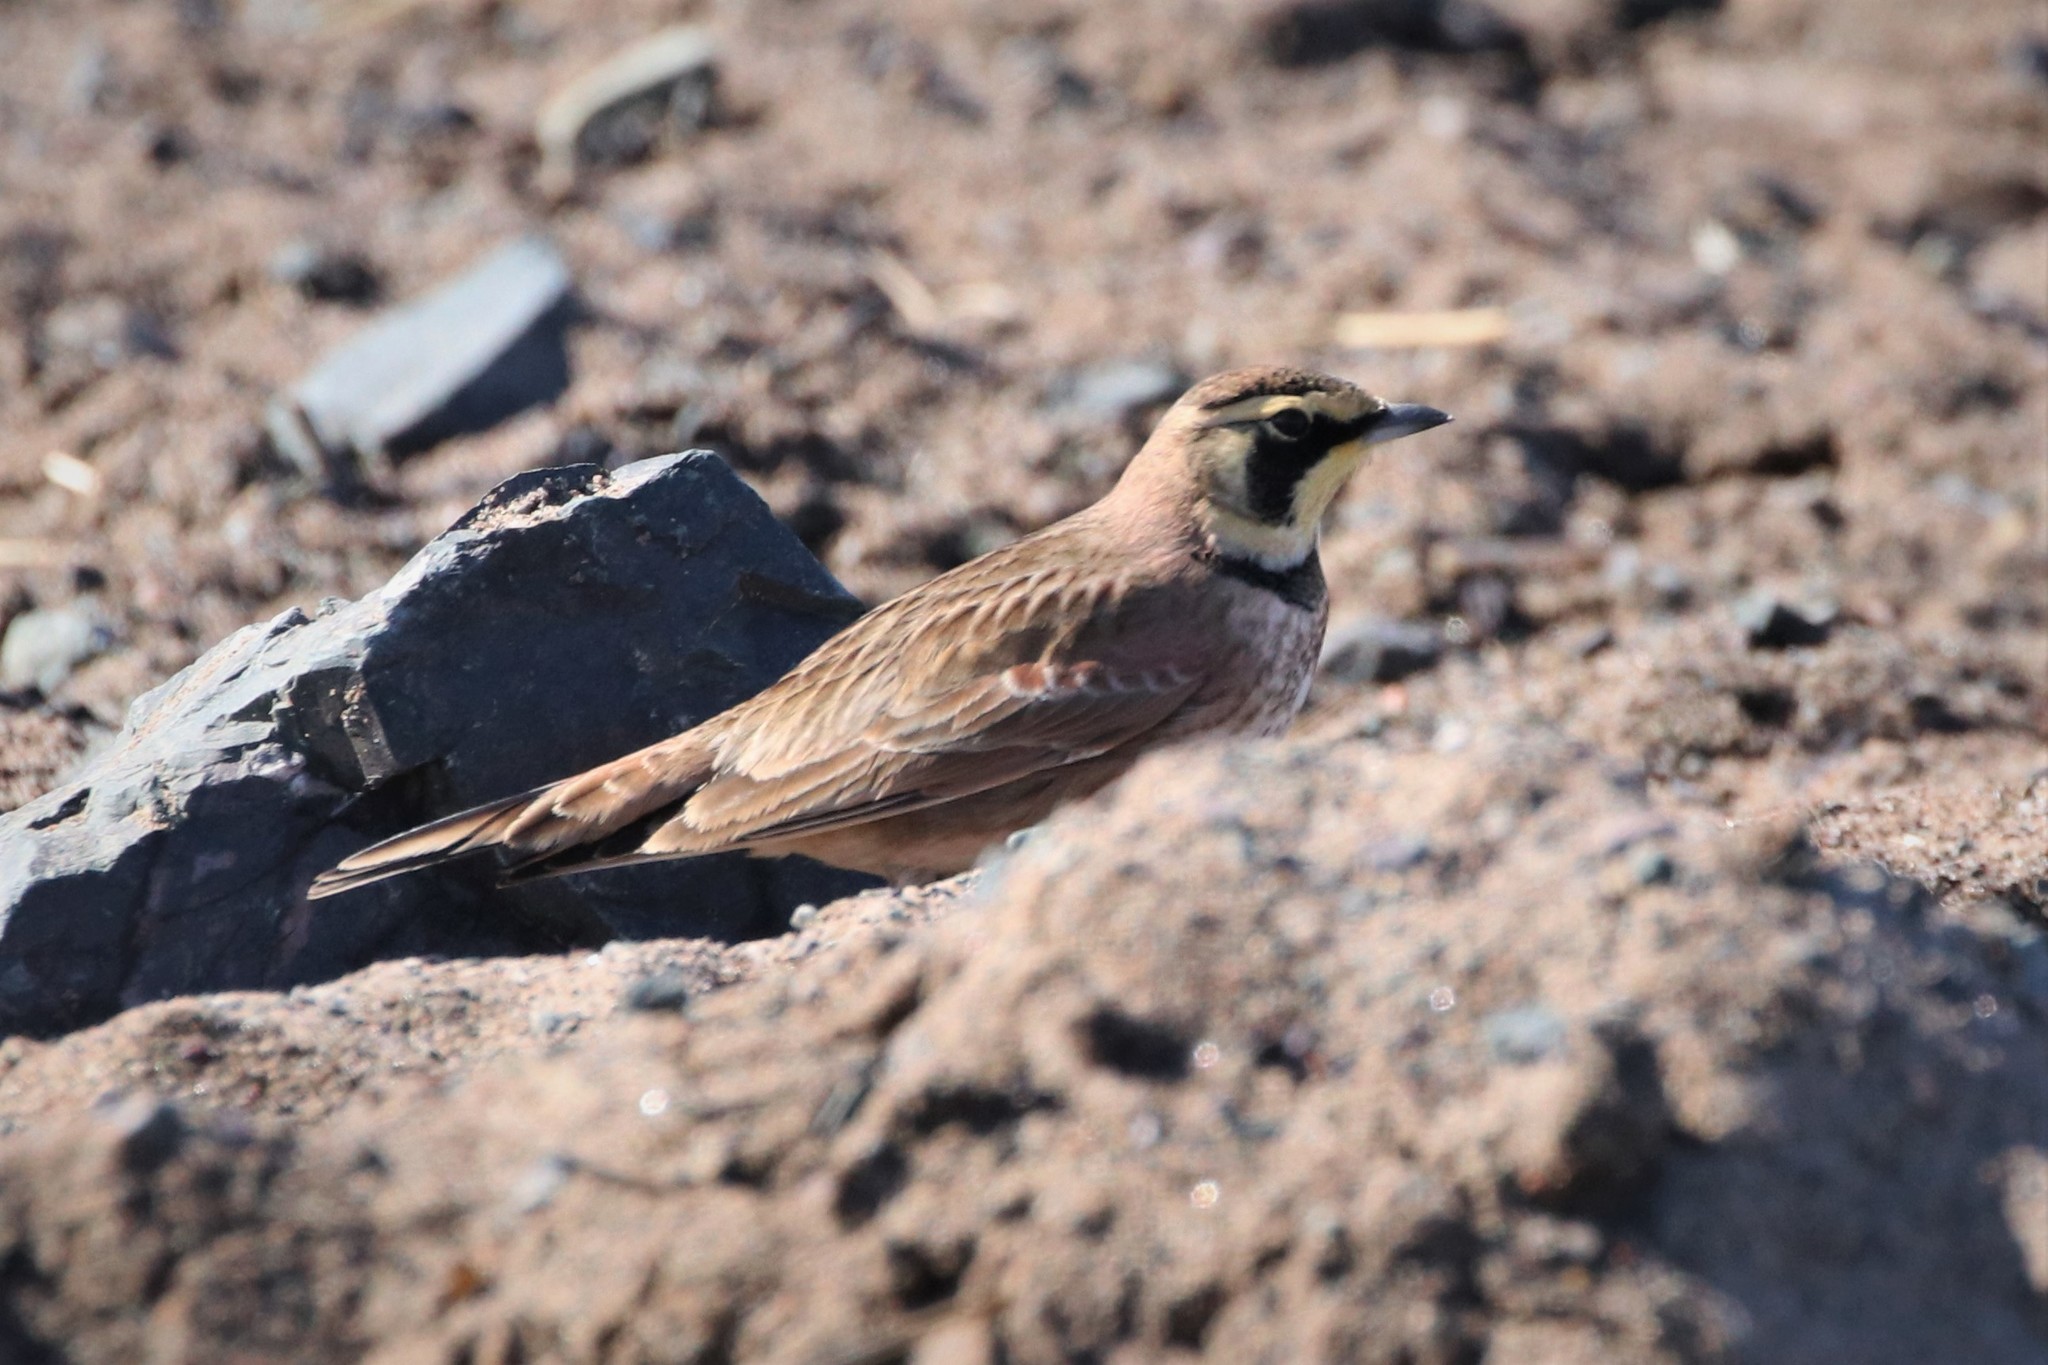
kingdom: Animalia
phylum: Chordata
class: Aves
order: Passeriformes
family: Alaudidae
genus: Eremophila
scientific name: Eremophila alpestris
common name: Horned lark
